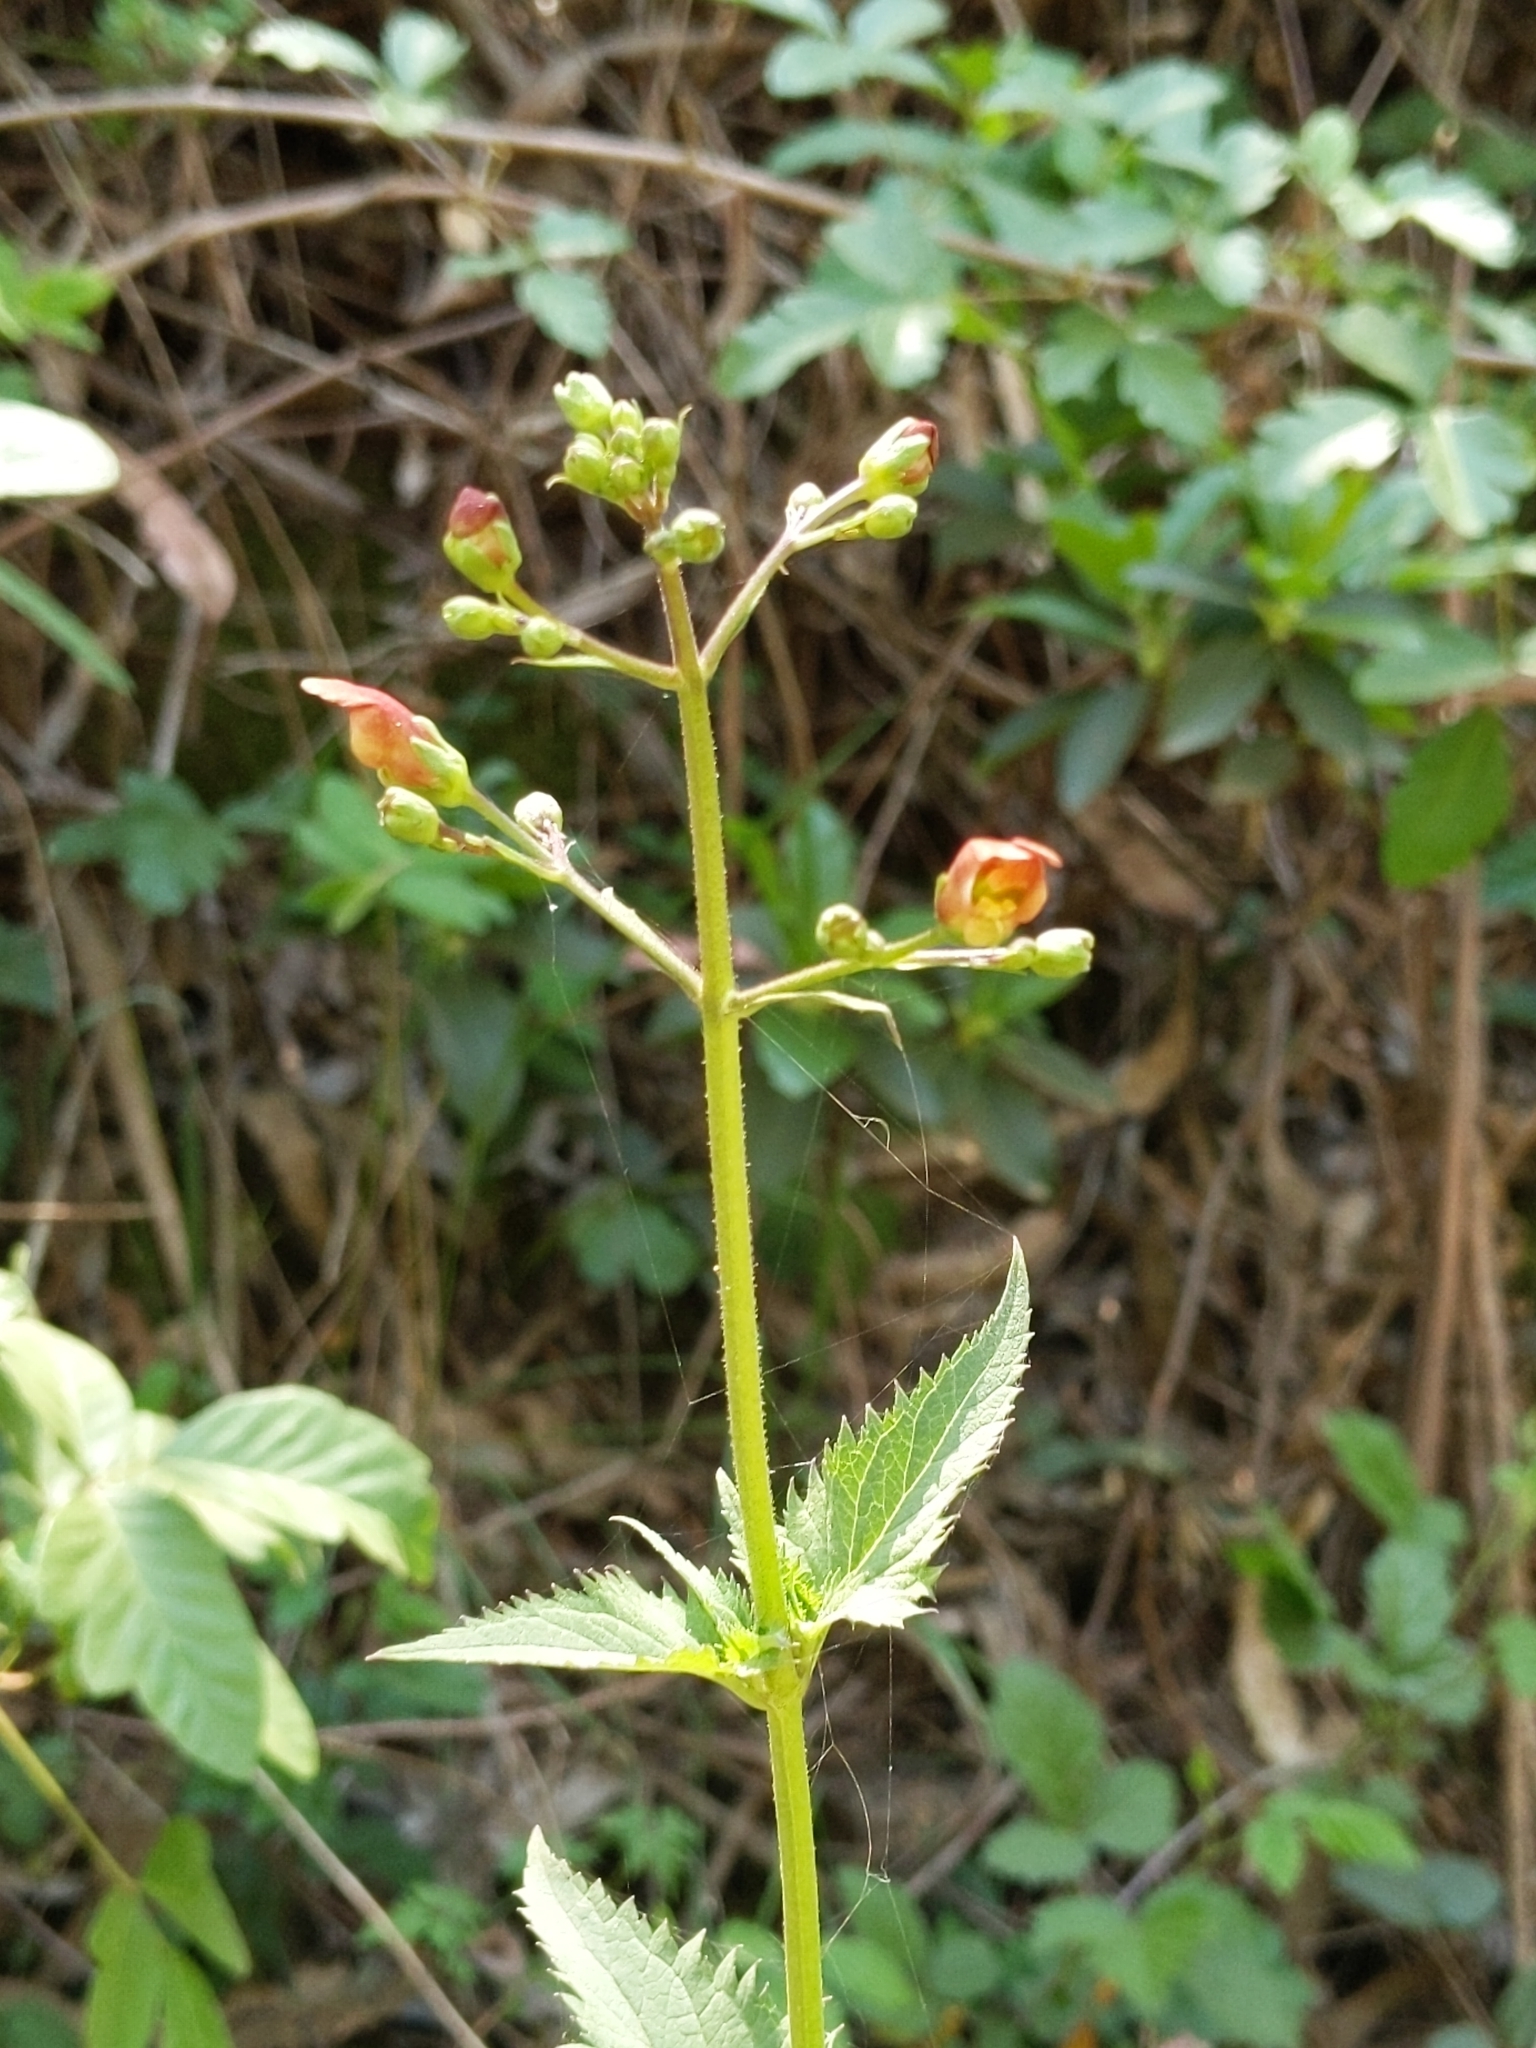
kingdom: Plantae
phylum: Tracheophyta
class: Magnoliopsida
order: Lamiales
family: Scrophulariaceae
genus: Scrophularia
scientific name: Scrophularia californica
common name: California figwort
